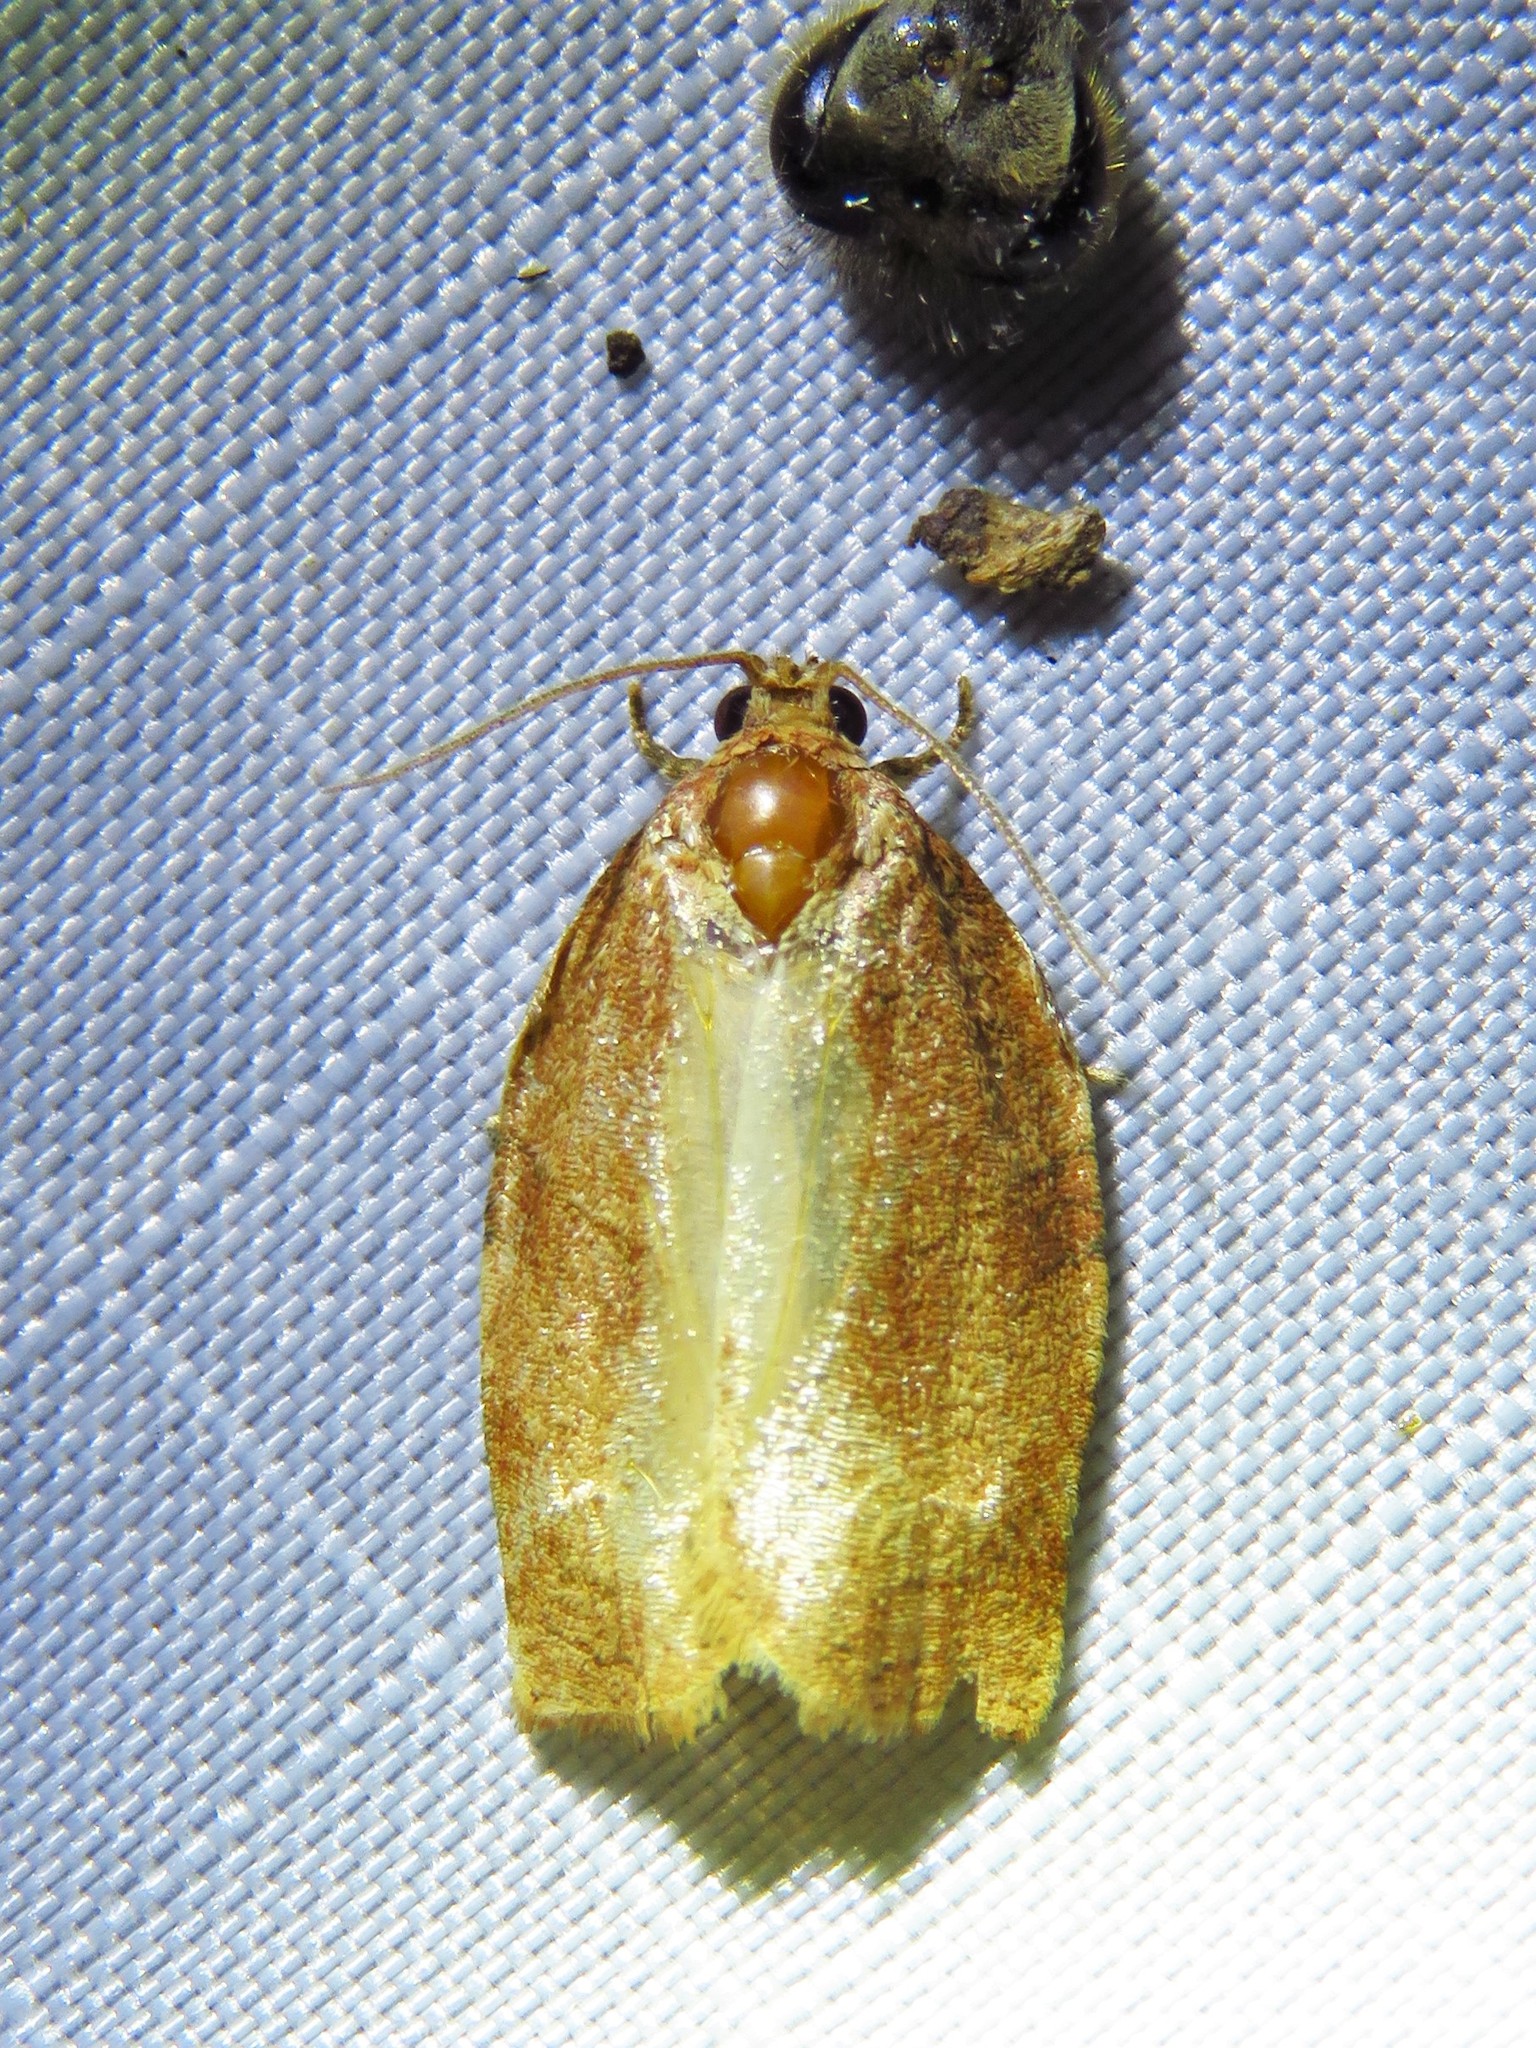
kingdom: Animalia
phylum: Arthropoda
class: Insecta
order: Lepidoptera
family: Tortricidae
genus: Choristoneura
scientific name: Choristoneura rosaceana
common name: Oblique-banded leafroller moth
